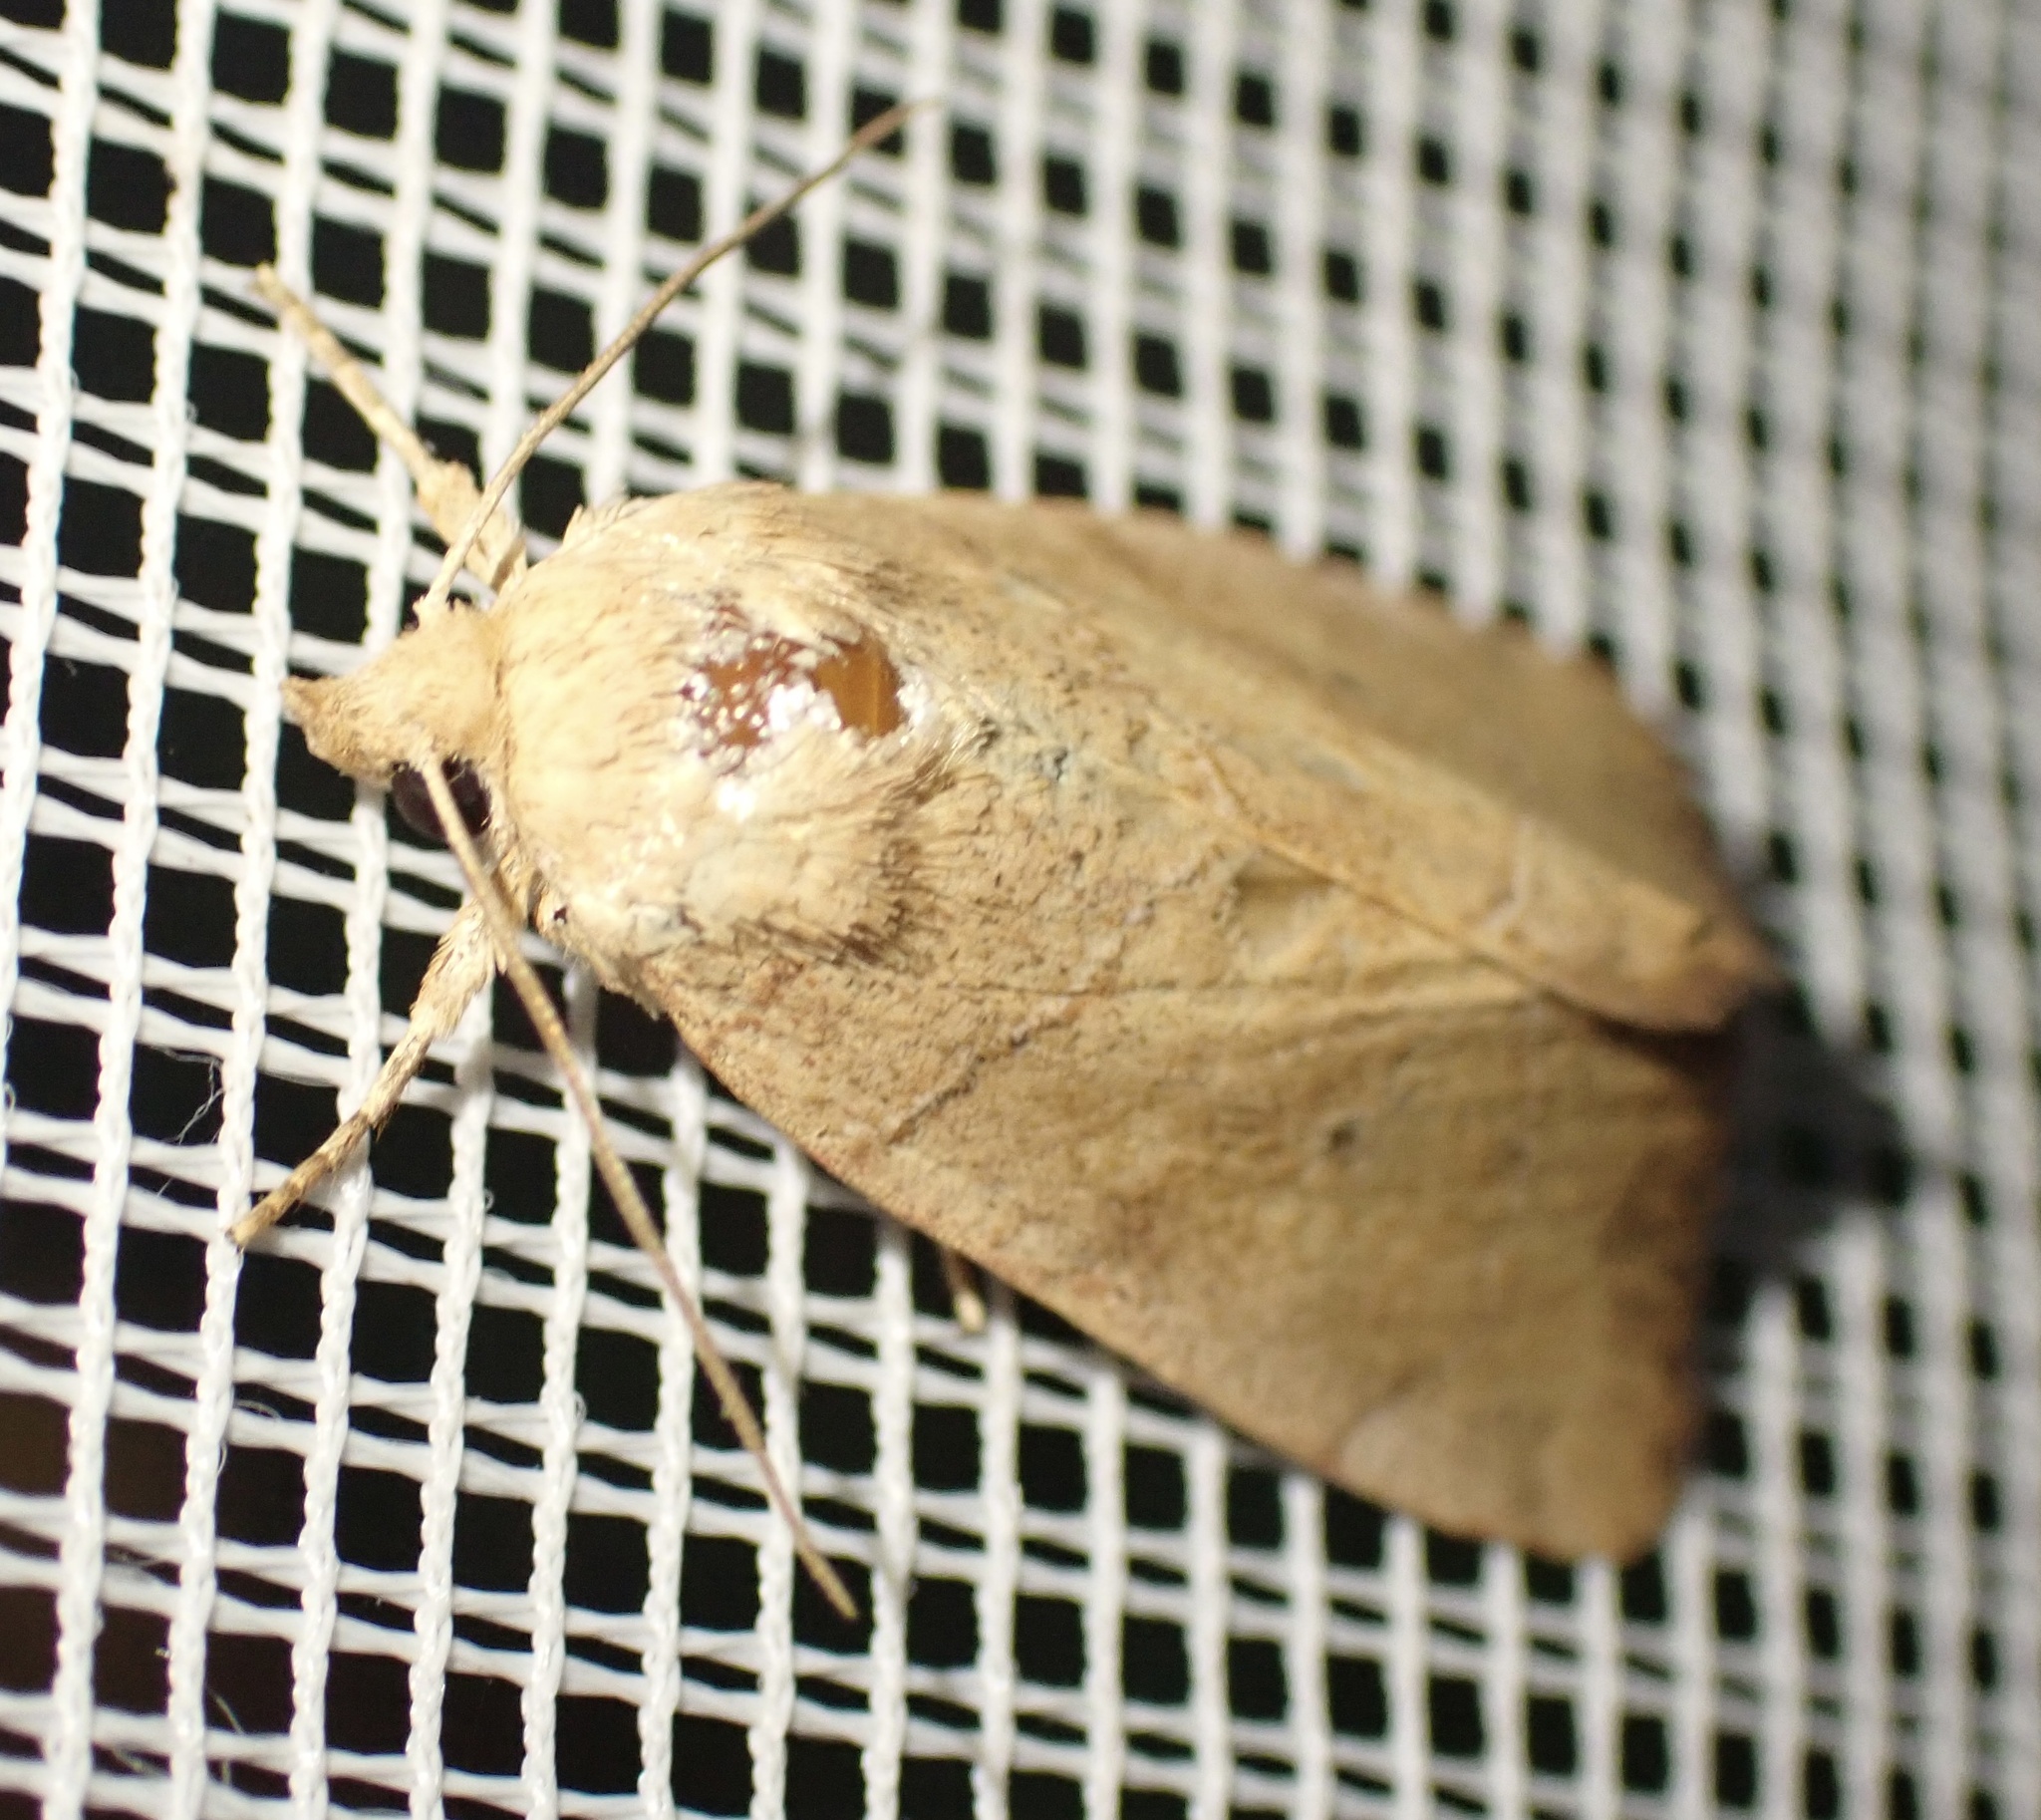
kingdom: Animalia
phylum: Arthropoda
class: Insecta
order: Lepidoptera
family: Noctuidae
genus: Cosmia
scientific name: Cosmia trapezina
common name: Dun-bar
